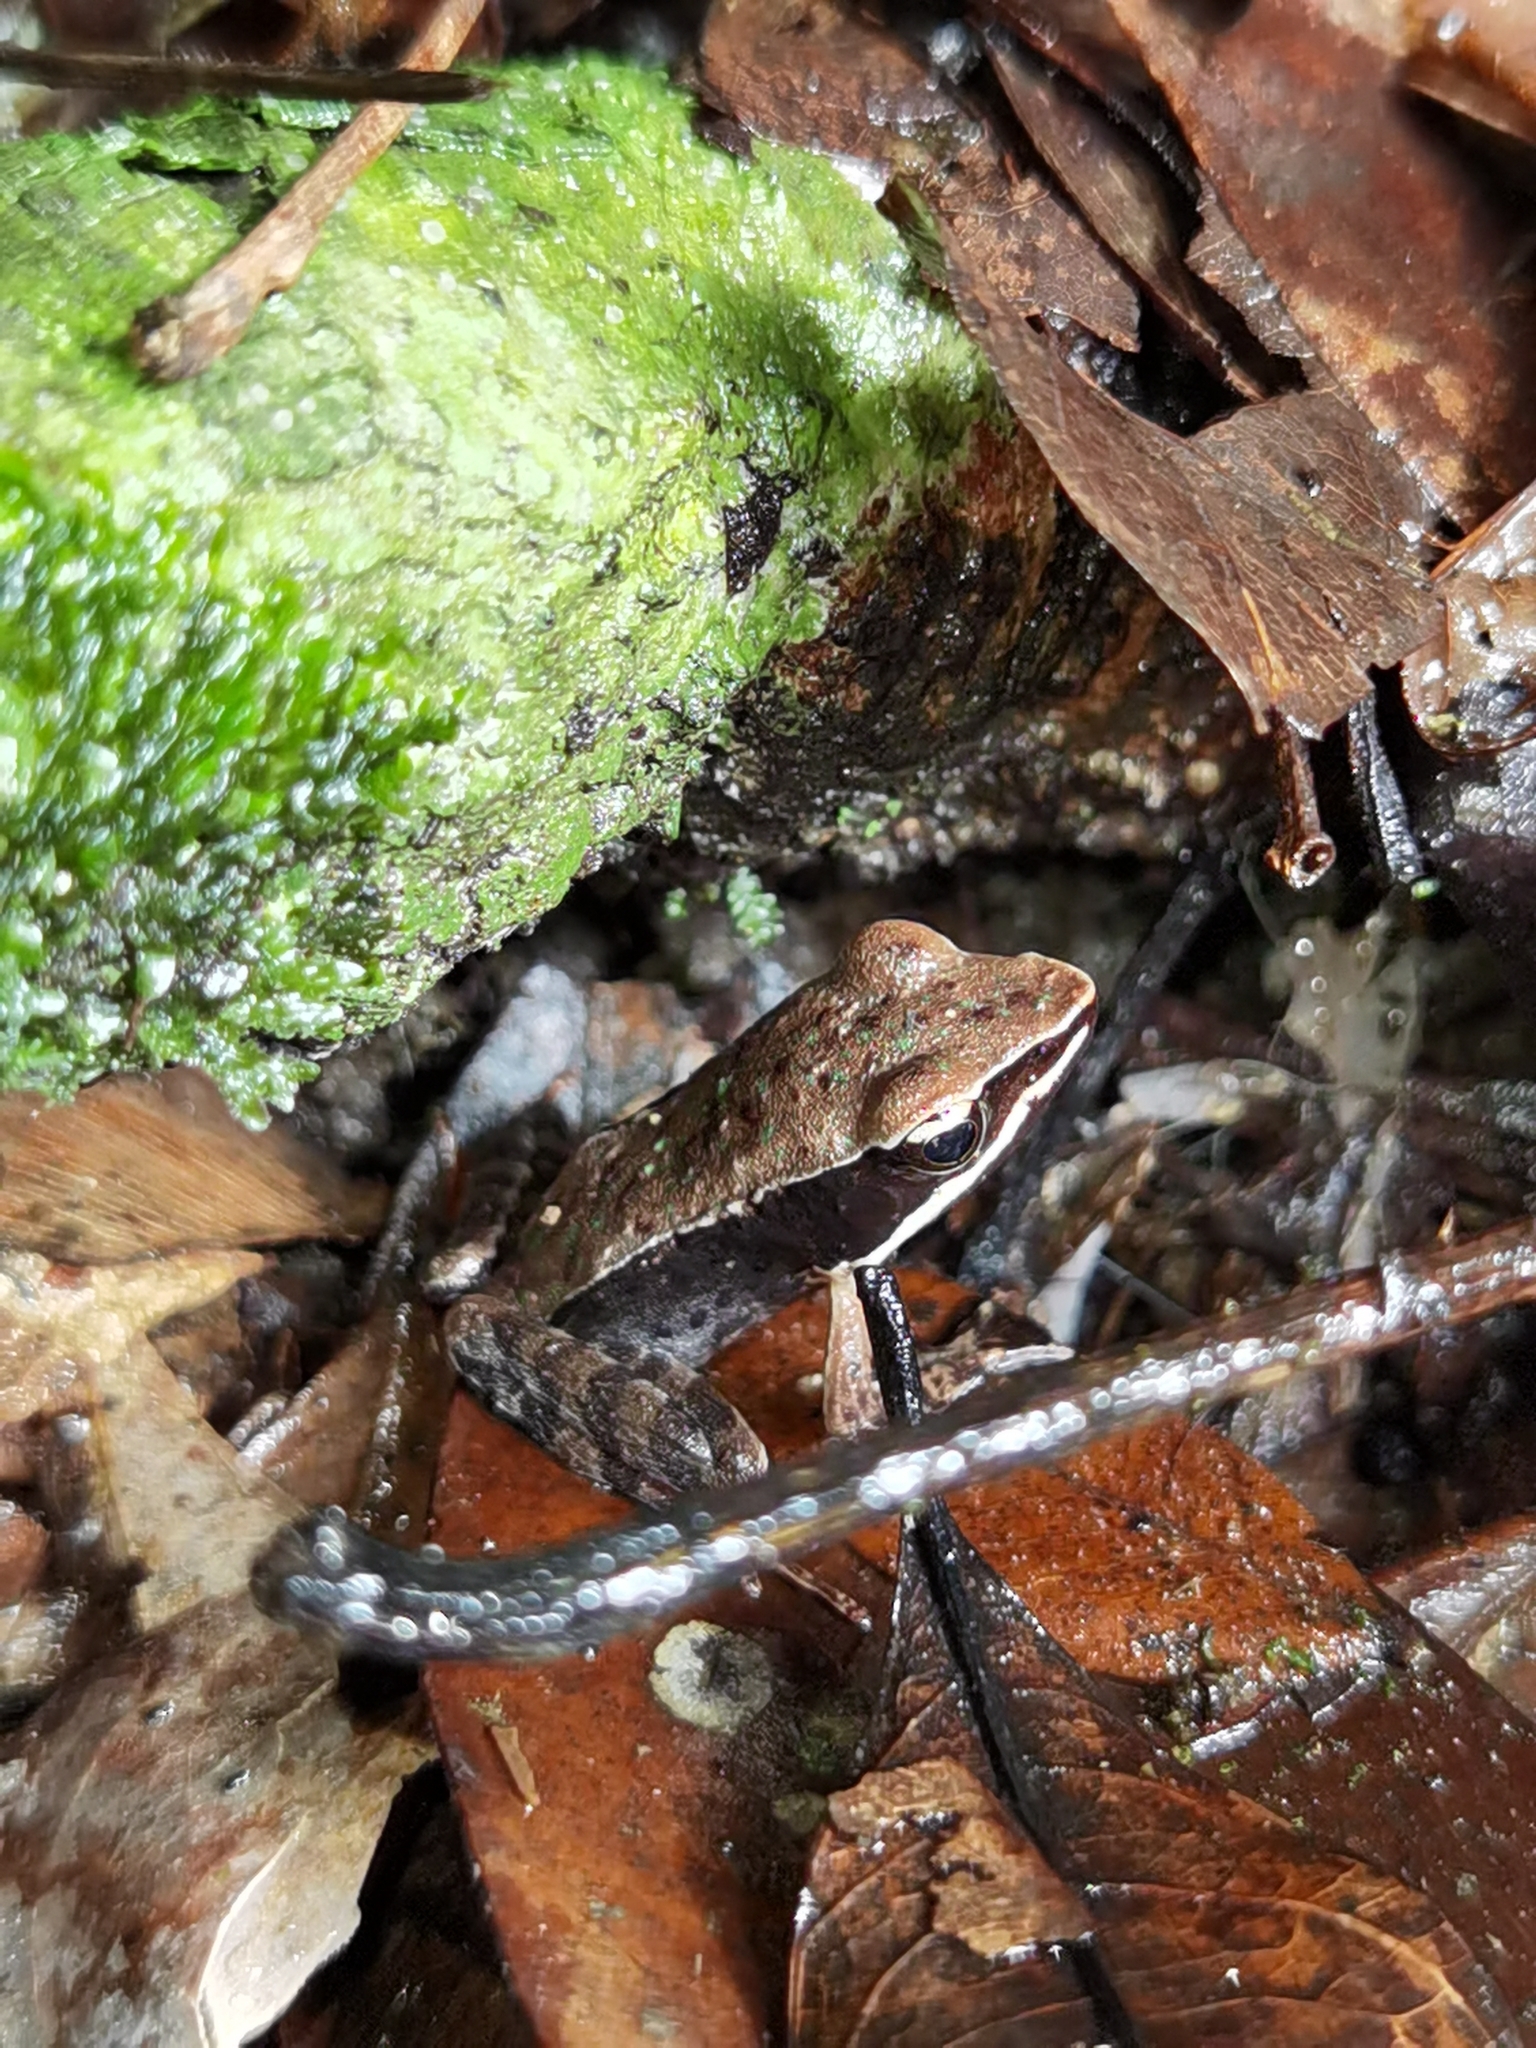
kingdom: Animalia
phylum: Chordata
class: Amphibia
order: Anura
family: Ranidae
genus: Lithobates
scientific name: Lithobates warszewitschii
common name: Warszewitsch's frog
